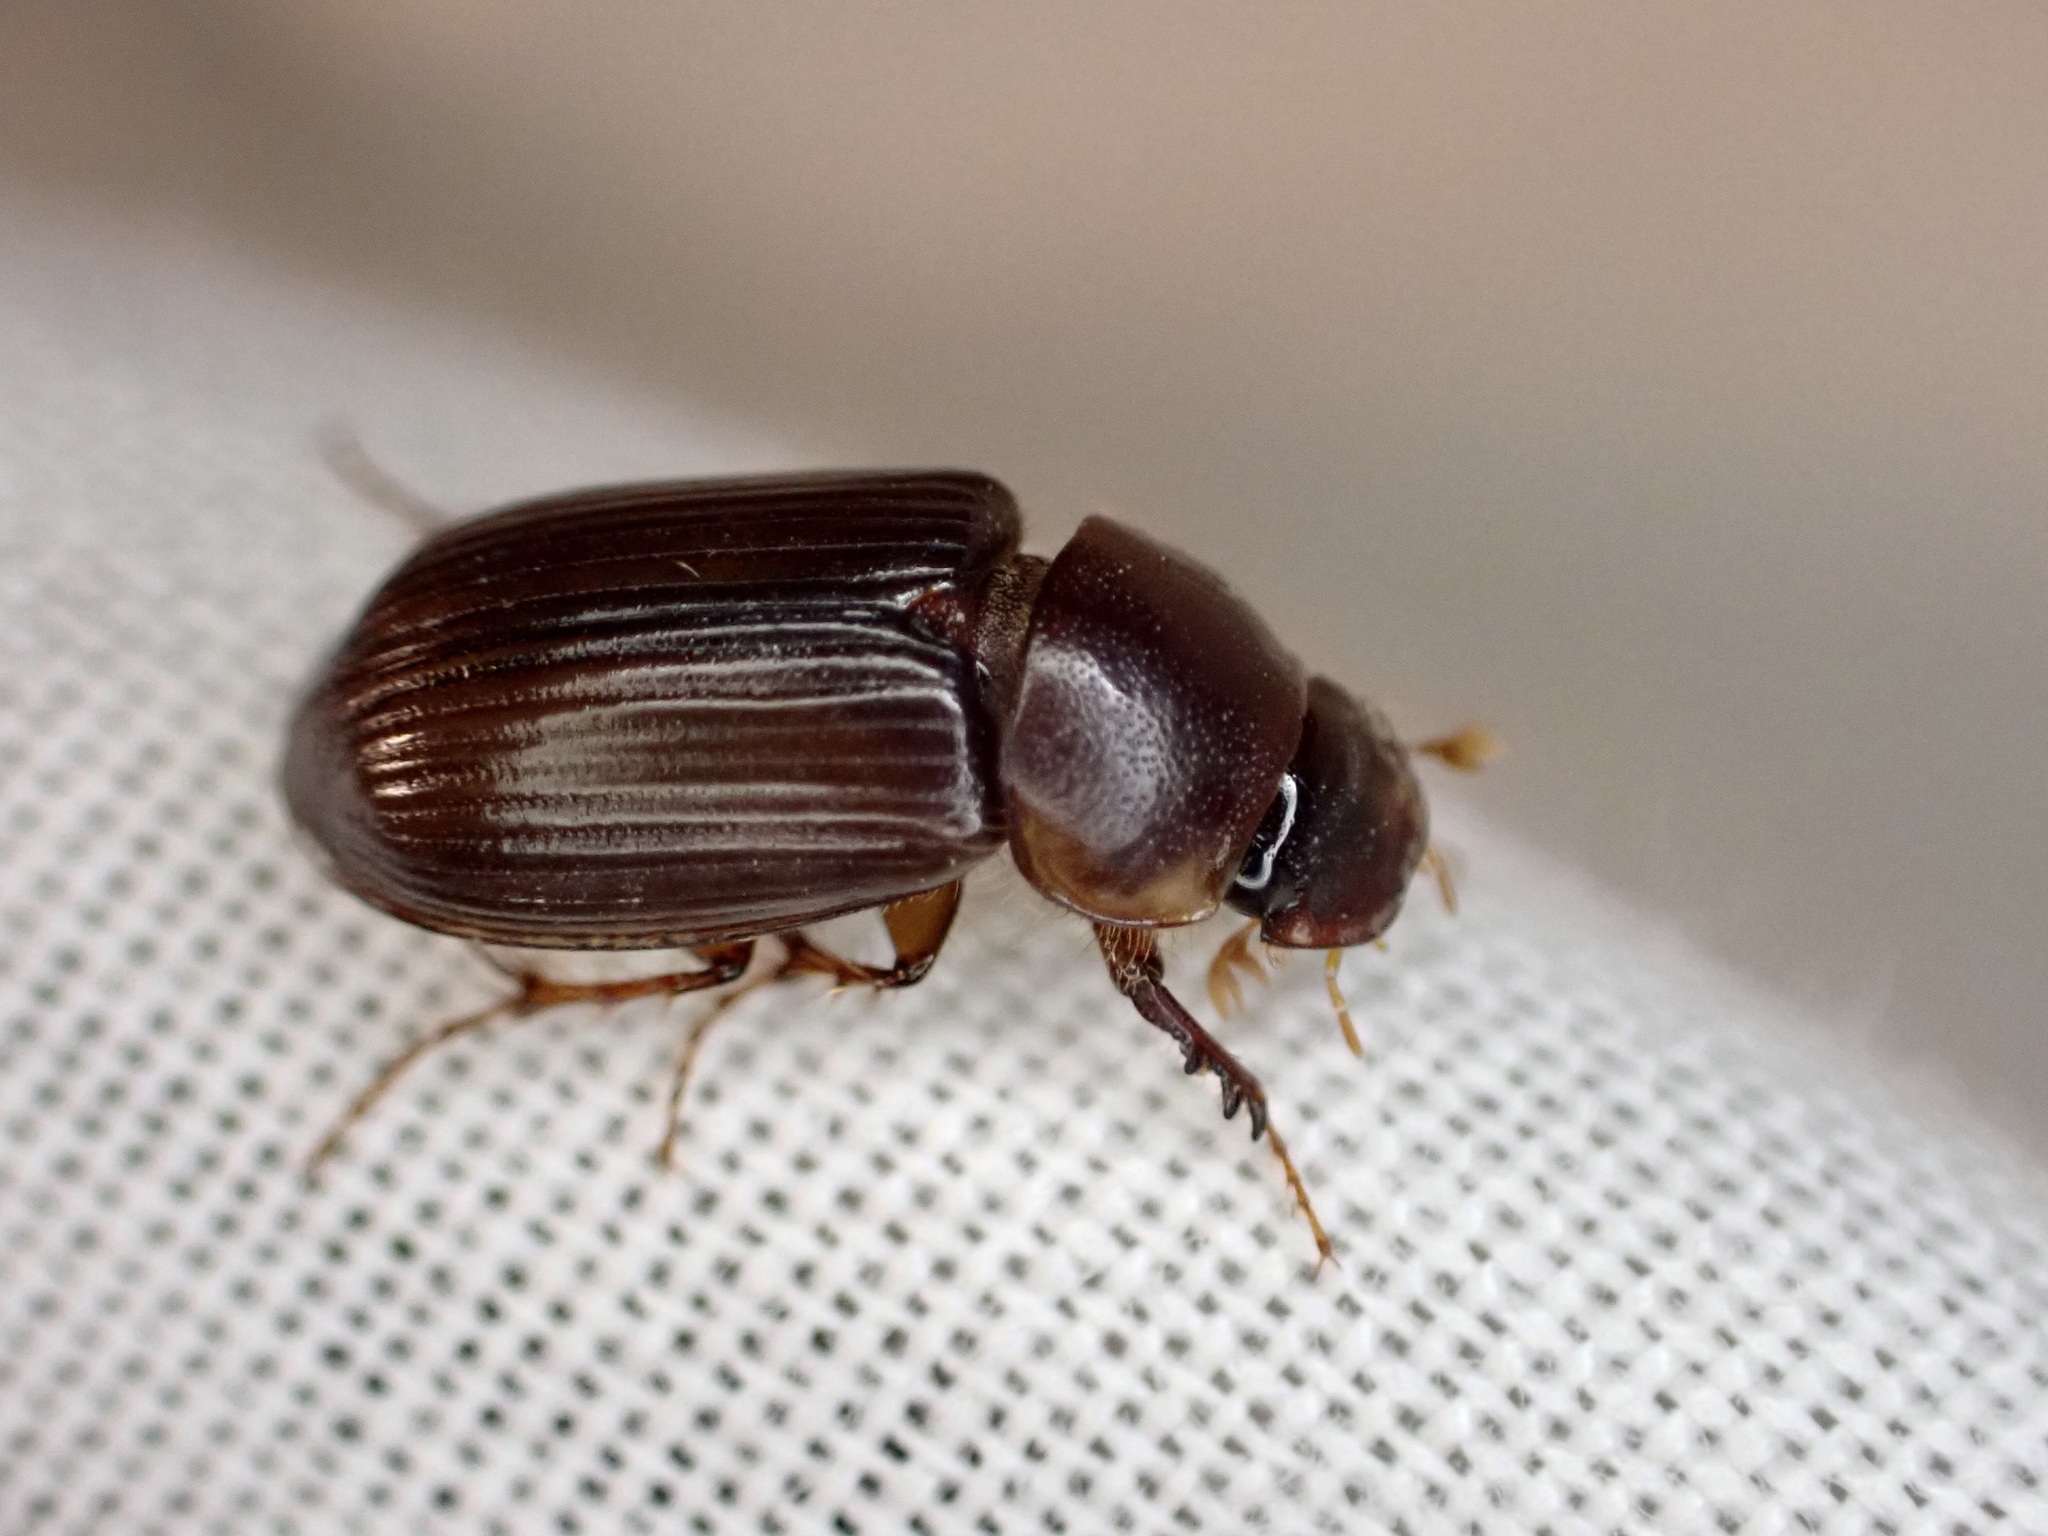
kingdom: Animalia
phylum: Arthropoda
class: Insecta
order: Coleoptera
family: Scarabaeidae
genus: Acrossidius
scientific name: Acrossidius tasmaniae
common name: Black-headed pasture cockchafer
